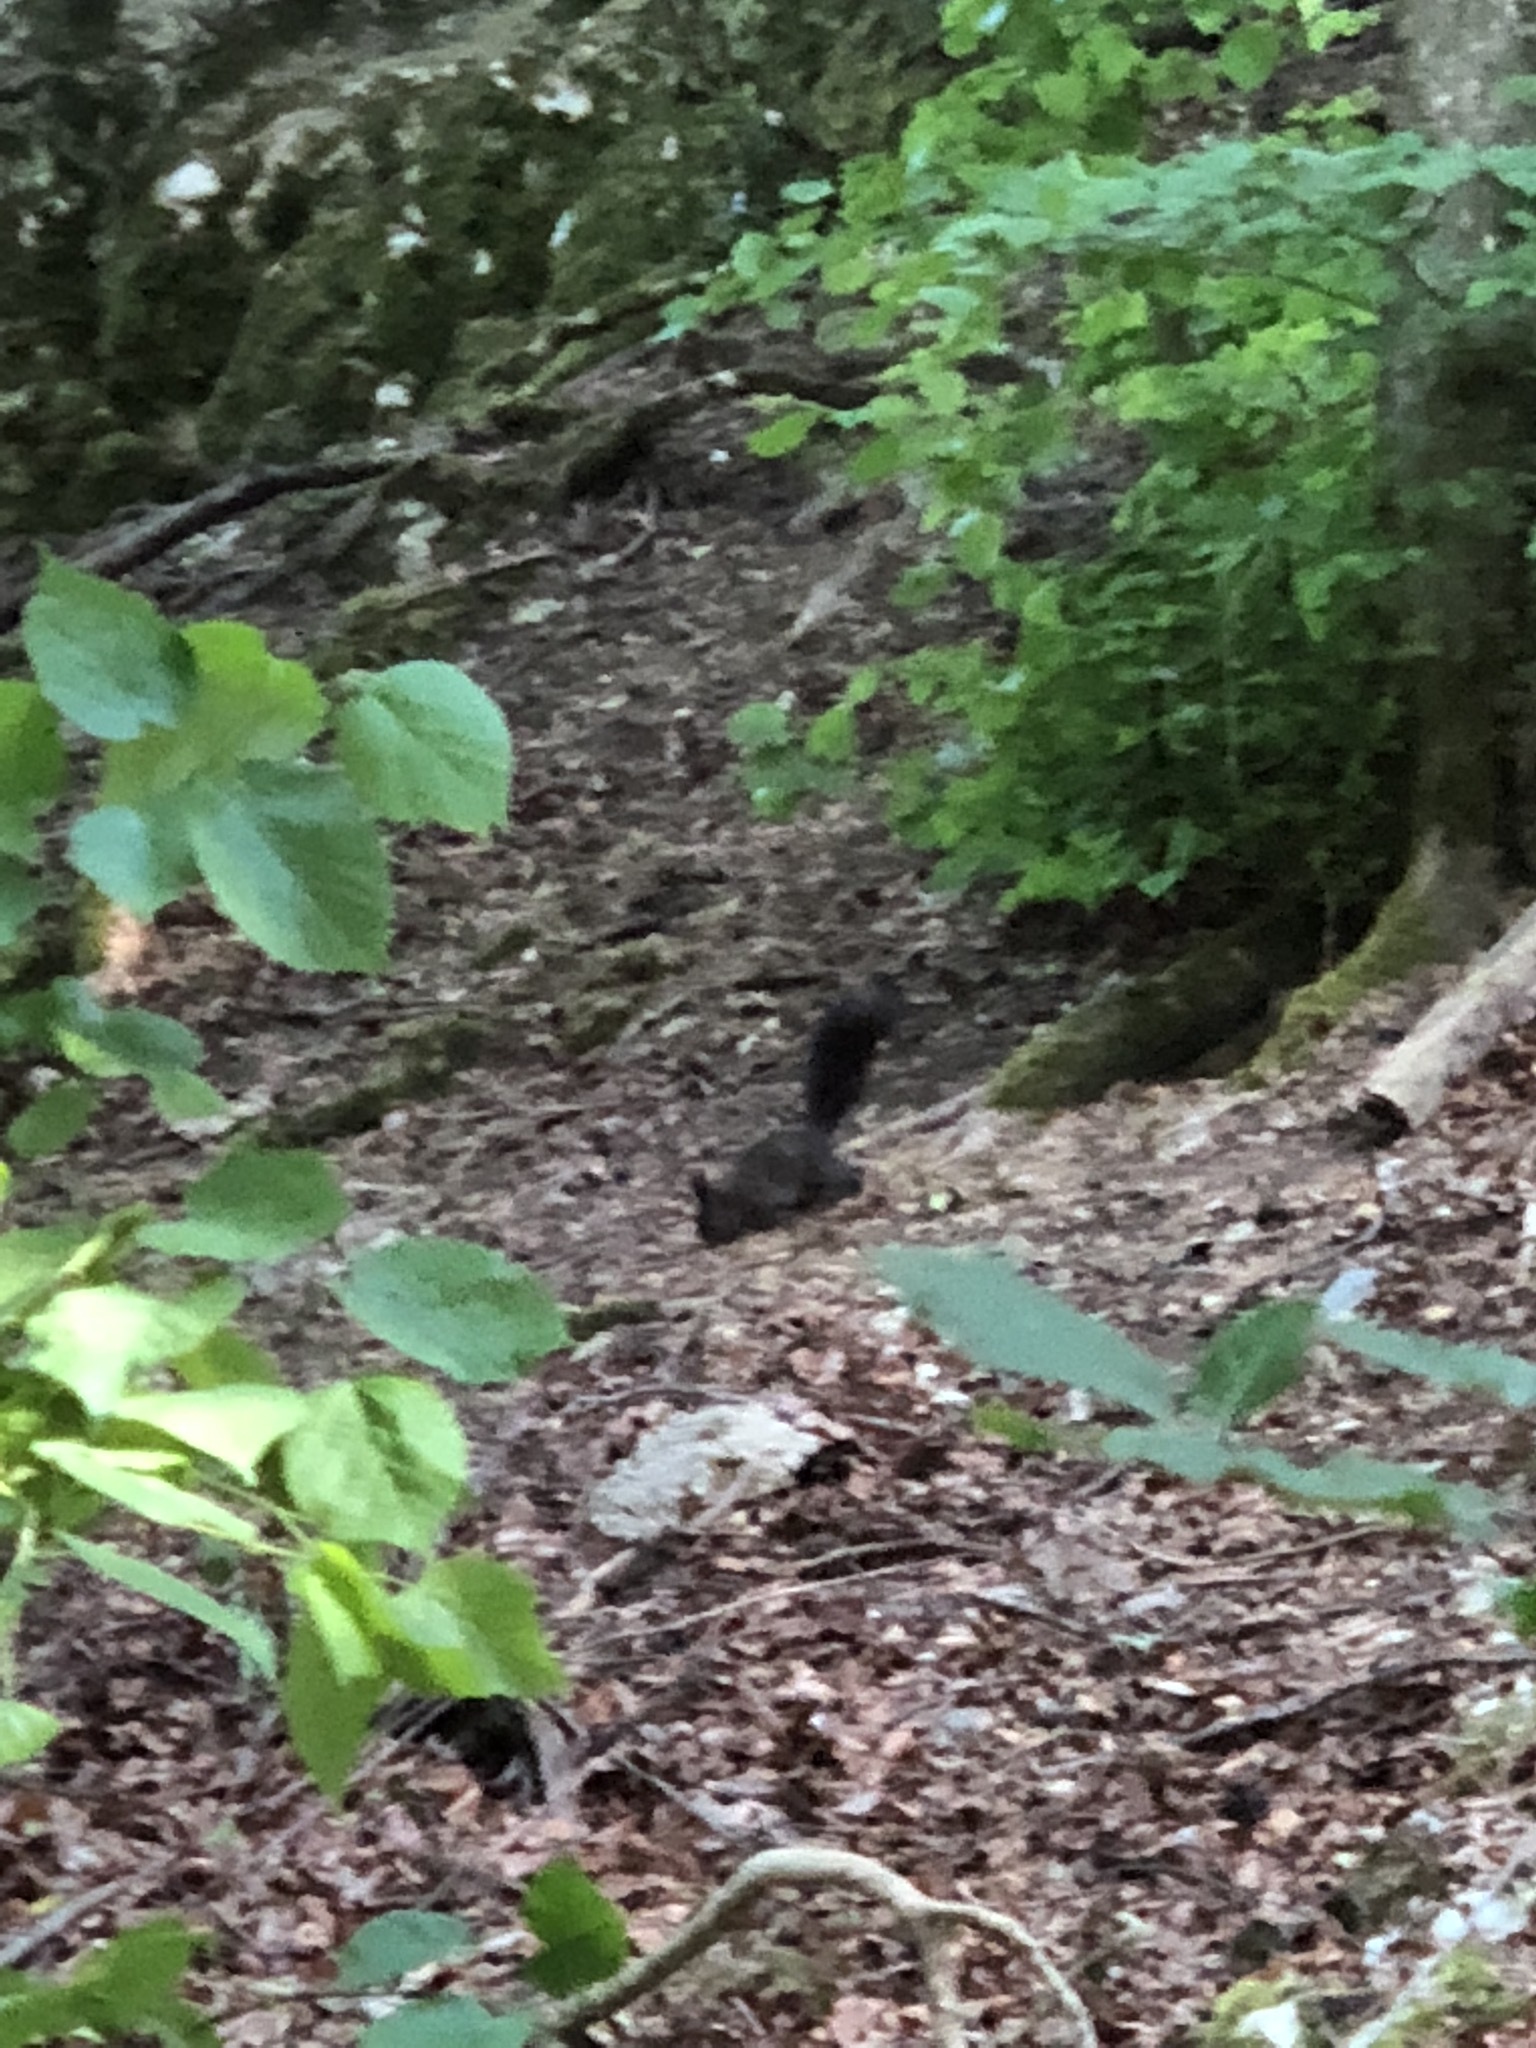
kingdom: Animalia
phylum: Chordata
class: Mammalia
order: Rodentia
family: Sciuridae
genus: Sciurus
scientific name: Sciurus vulgaris
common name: Eurasian red squirrel
